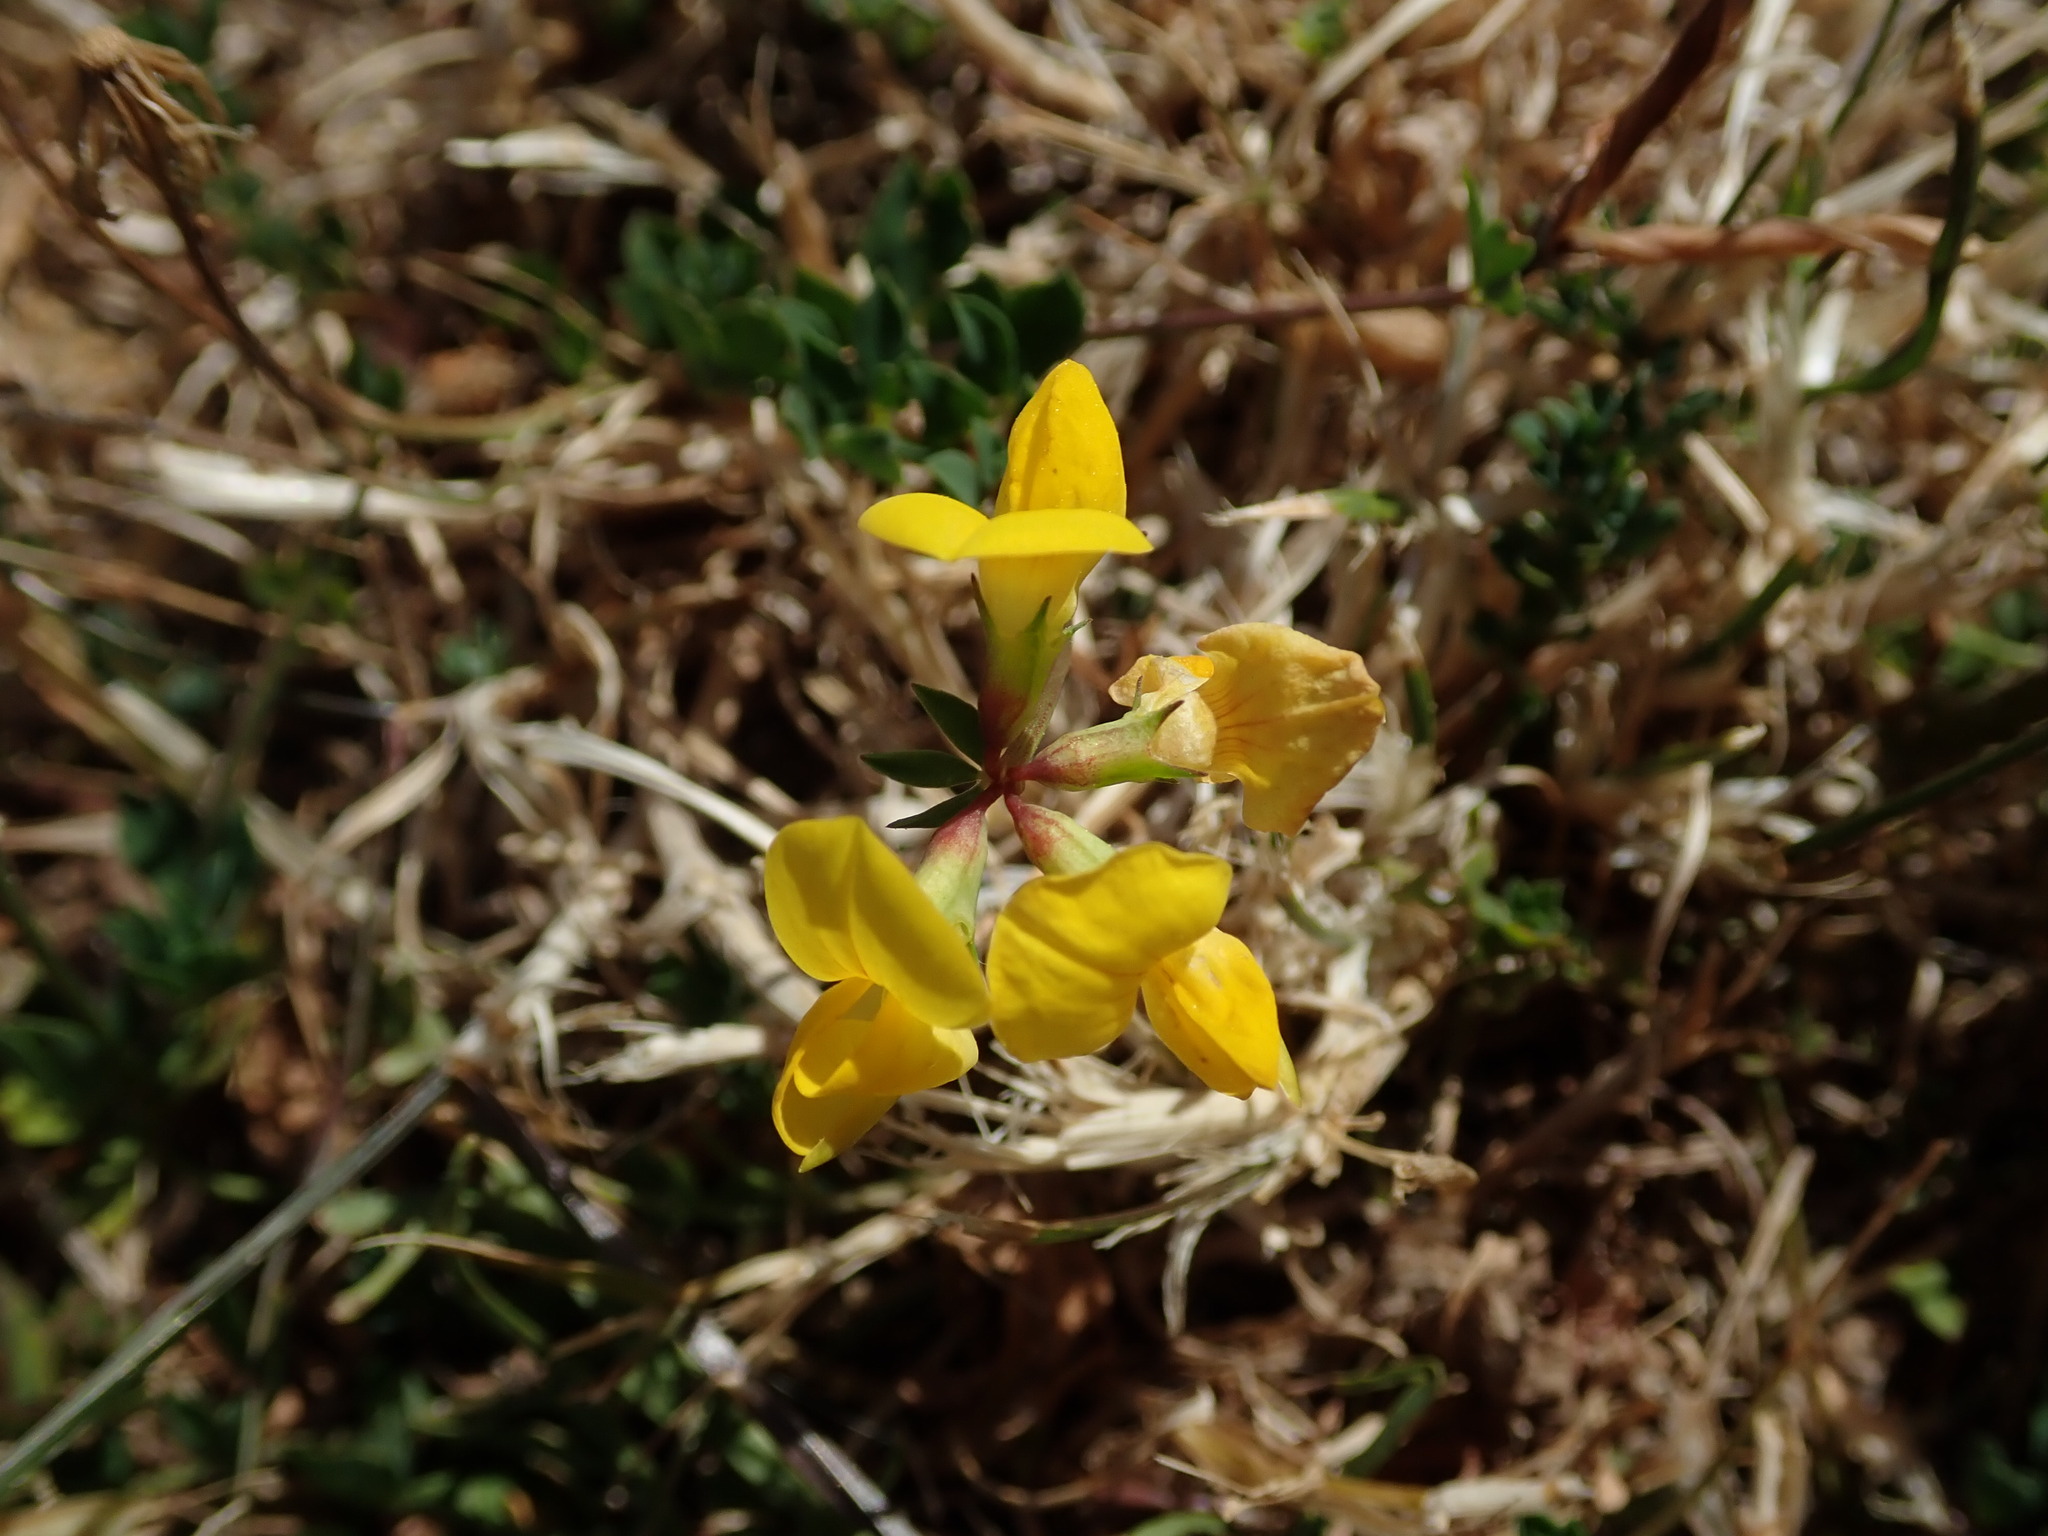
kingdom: Plantae
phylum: Tracheophyta
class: Magnoliopsida
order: Fabales
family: Fabaceae
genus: Lotus
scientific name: Lotus corniculatus
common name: Common bird's-foot-trefoil
